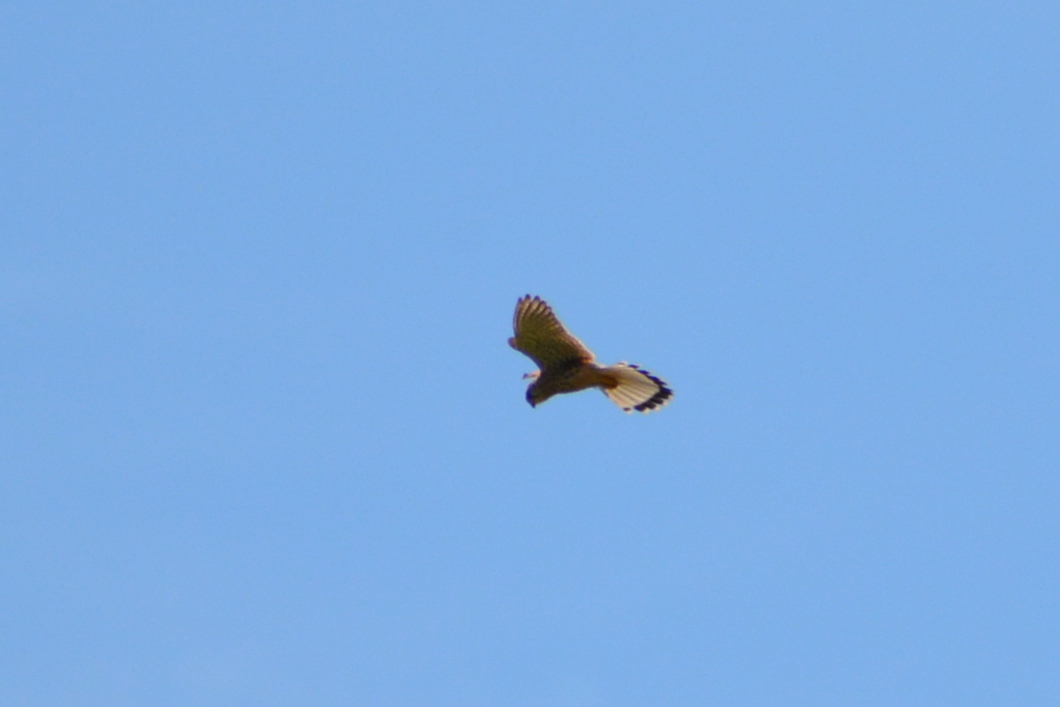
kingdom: Animalia
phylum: Chordata
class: Aves
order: Falconiformes
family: Falconidae
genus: Falco
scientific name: Falco tinnunculus
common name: Common kestrel
